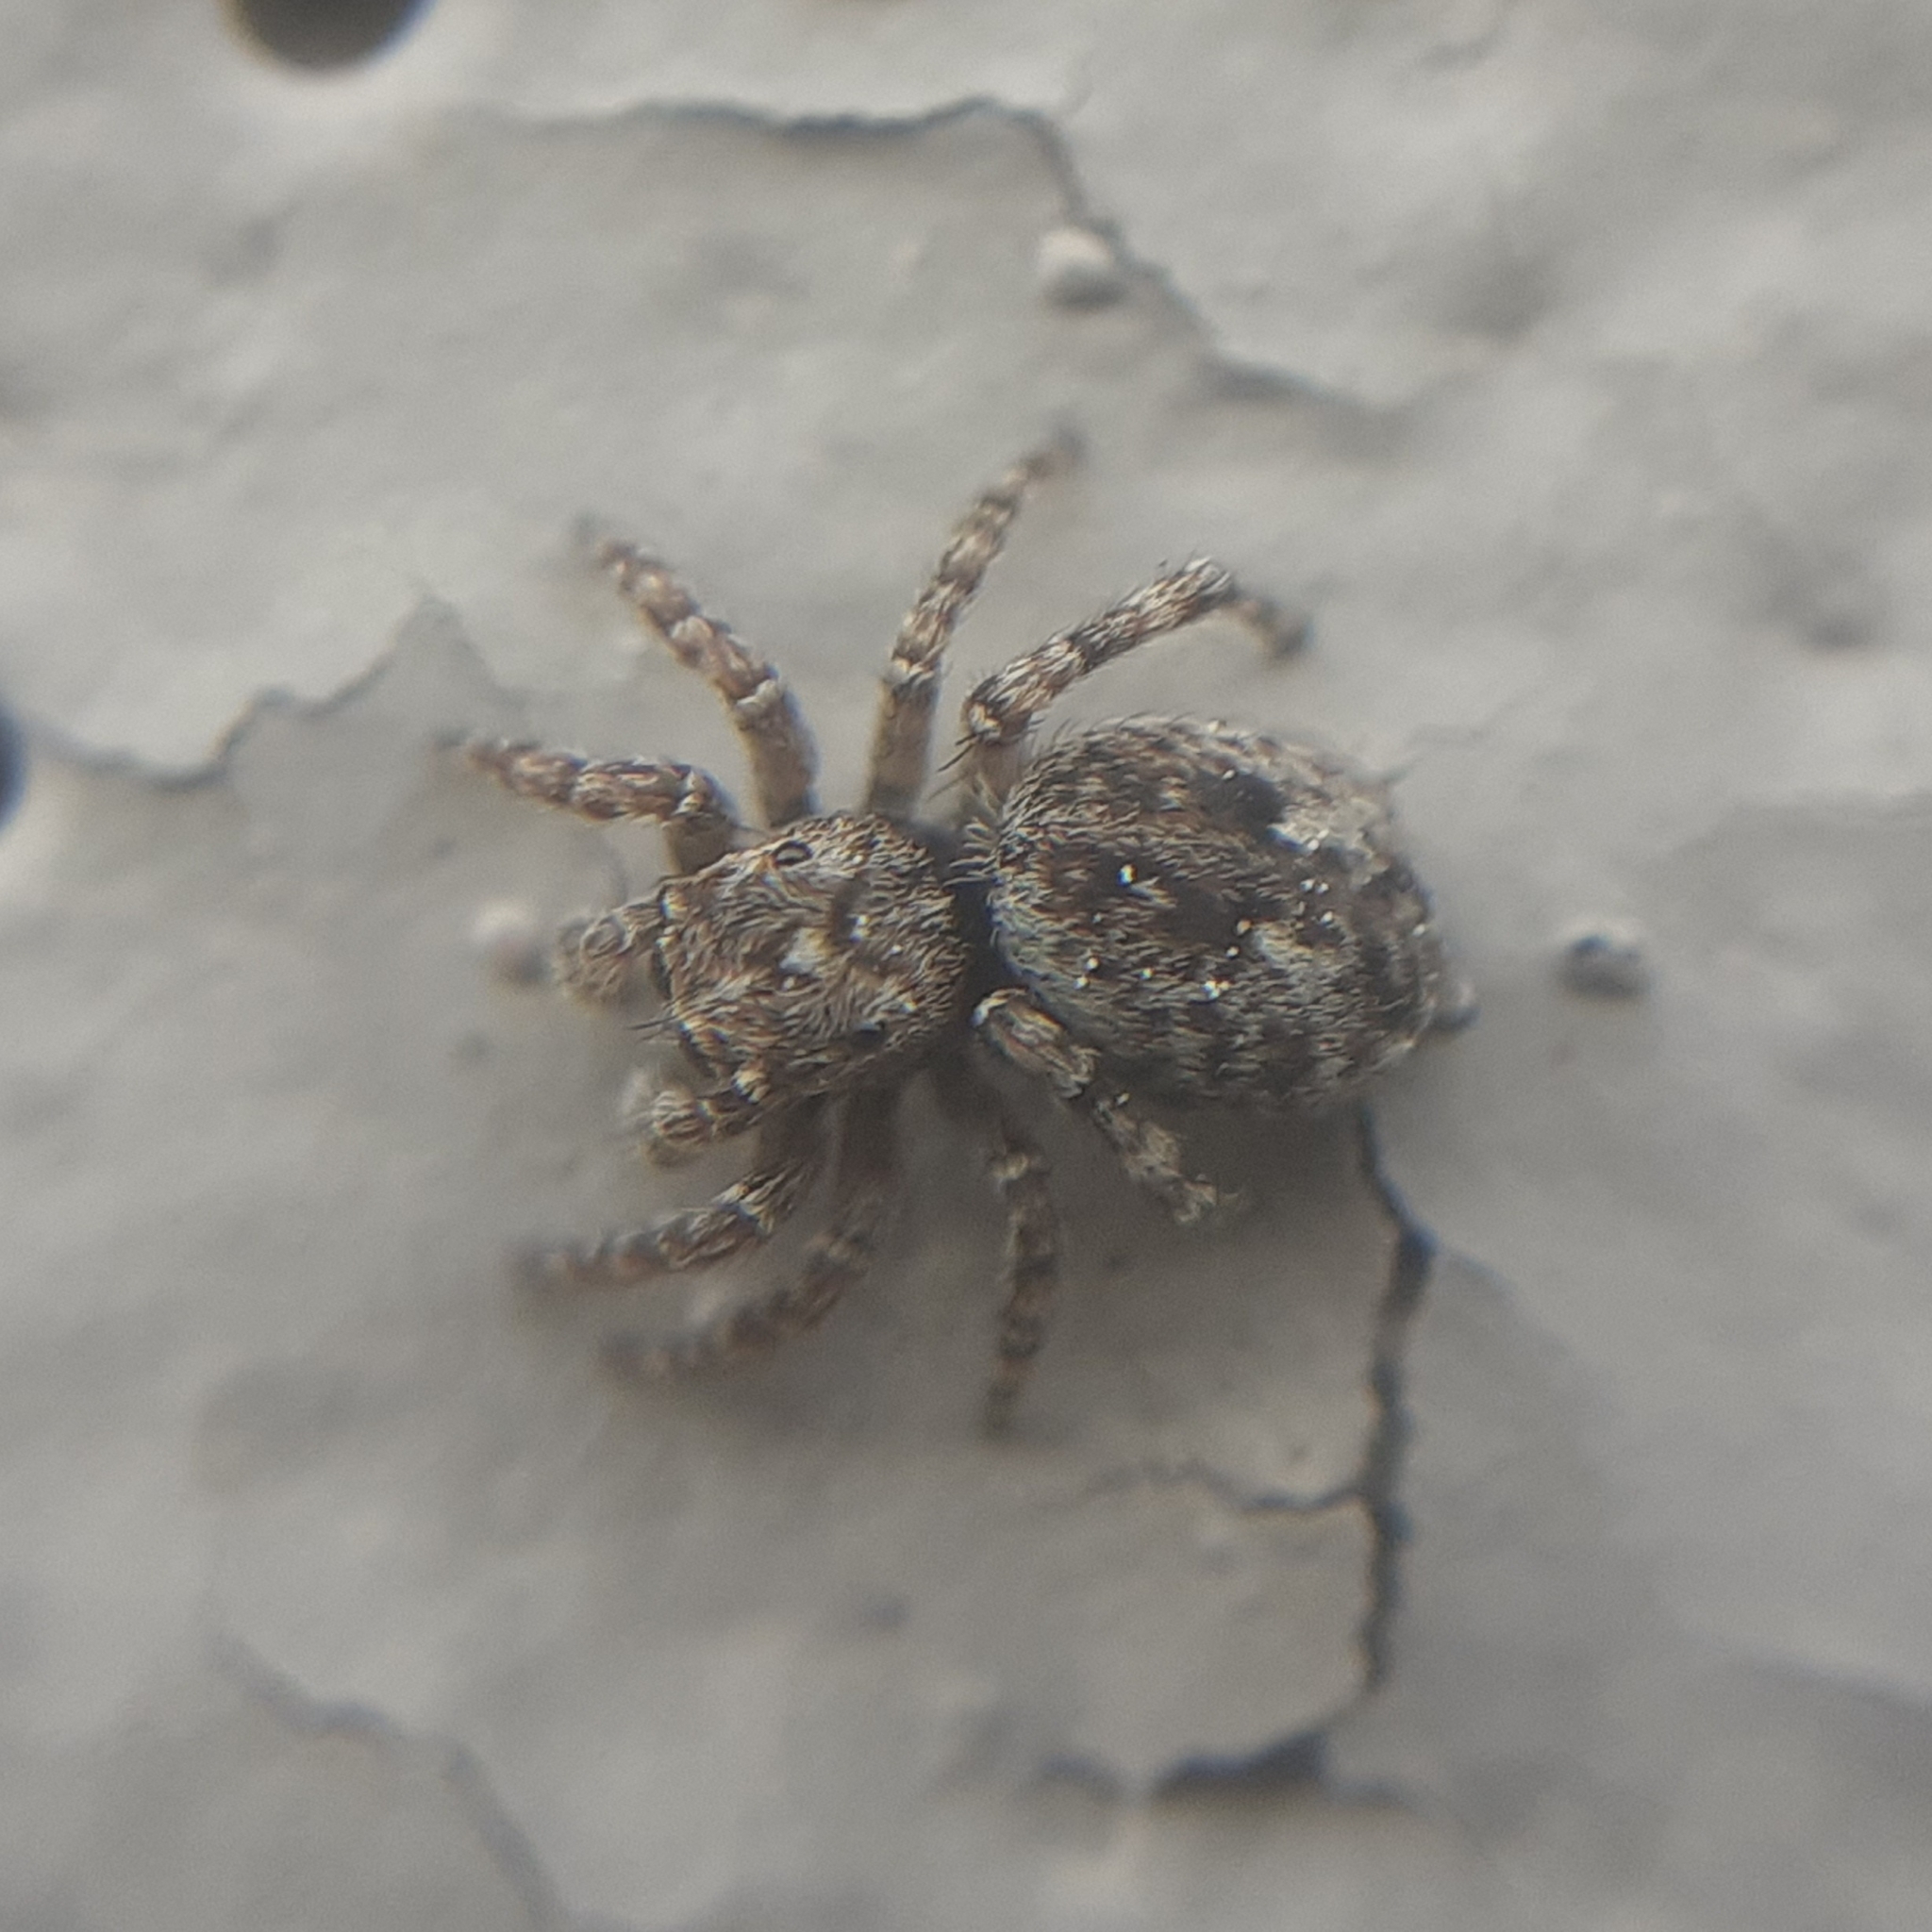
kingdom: Animalia
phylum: Arthropoda
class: Arachnida
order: Araneae
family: Salticidae
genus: Attulus
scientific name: Attulus pubescens
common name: Jumping spider
